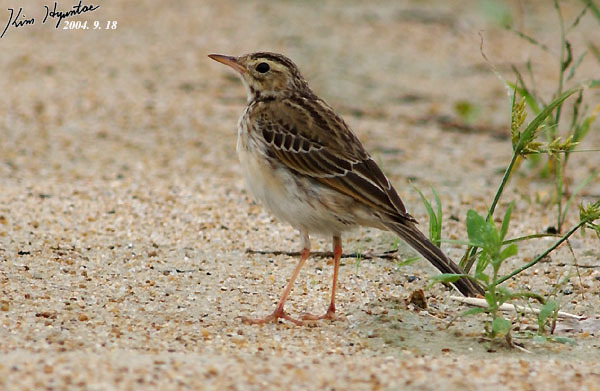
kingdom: Animalia
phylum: Chordata
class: Aves
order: Passeriformes
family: Motacillidae
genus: Anthus
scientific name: Anthus richardi
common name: Richard's pipit
